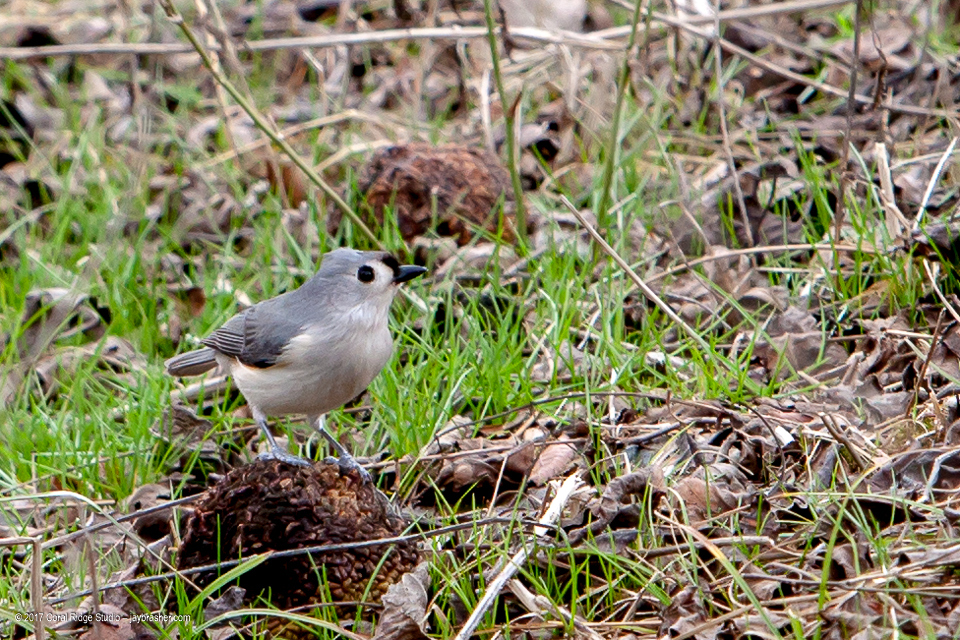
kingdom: Animalia
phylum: Chordata
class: Aves
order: Passeriformes
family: Paridae
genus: Baeolophus
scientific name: Baeolophus bicolor
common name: Tufted titmouse
